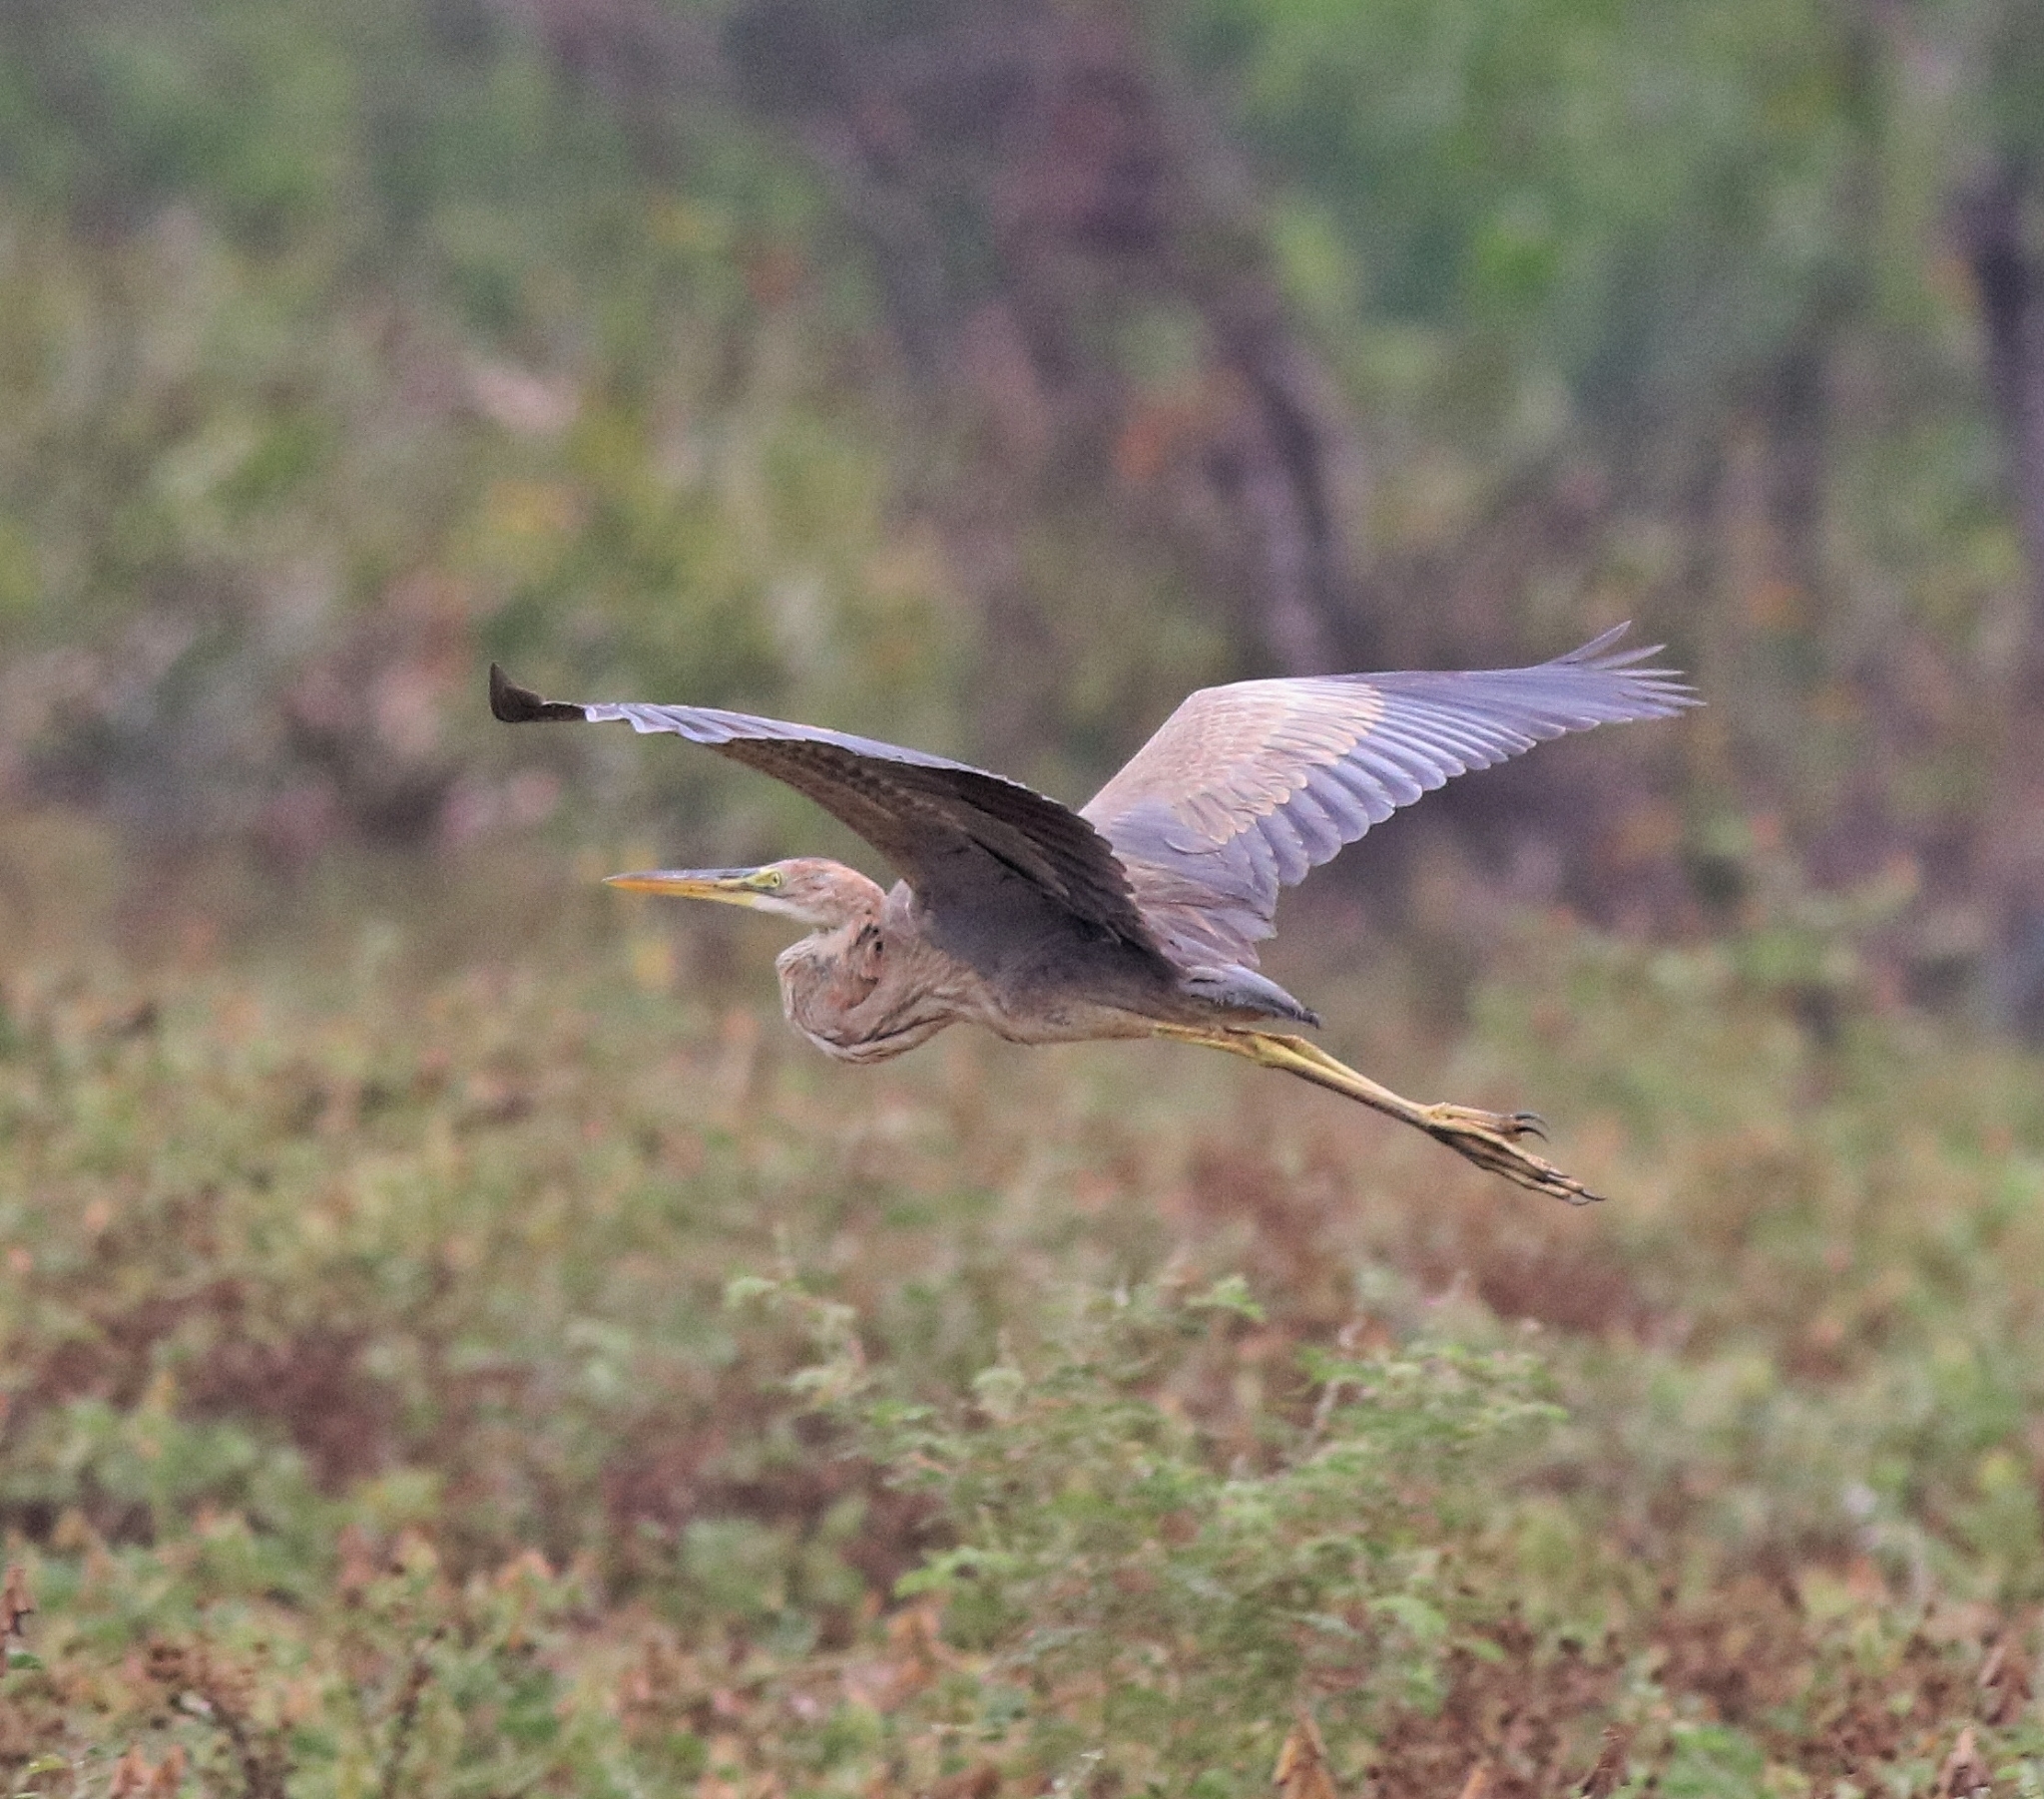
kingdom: Animalia
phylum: Chordata
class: Aves
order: Pelecaniformes
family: Ardeidae
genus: Ardea
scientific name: Ardea purpurea
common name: Purple heron
